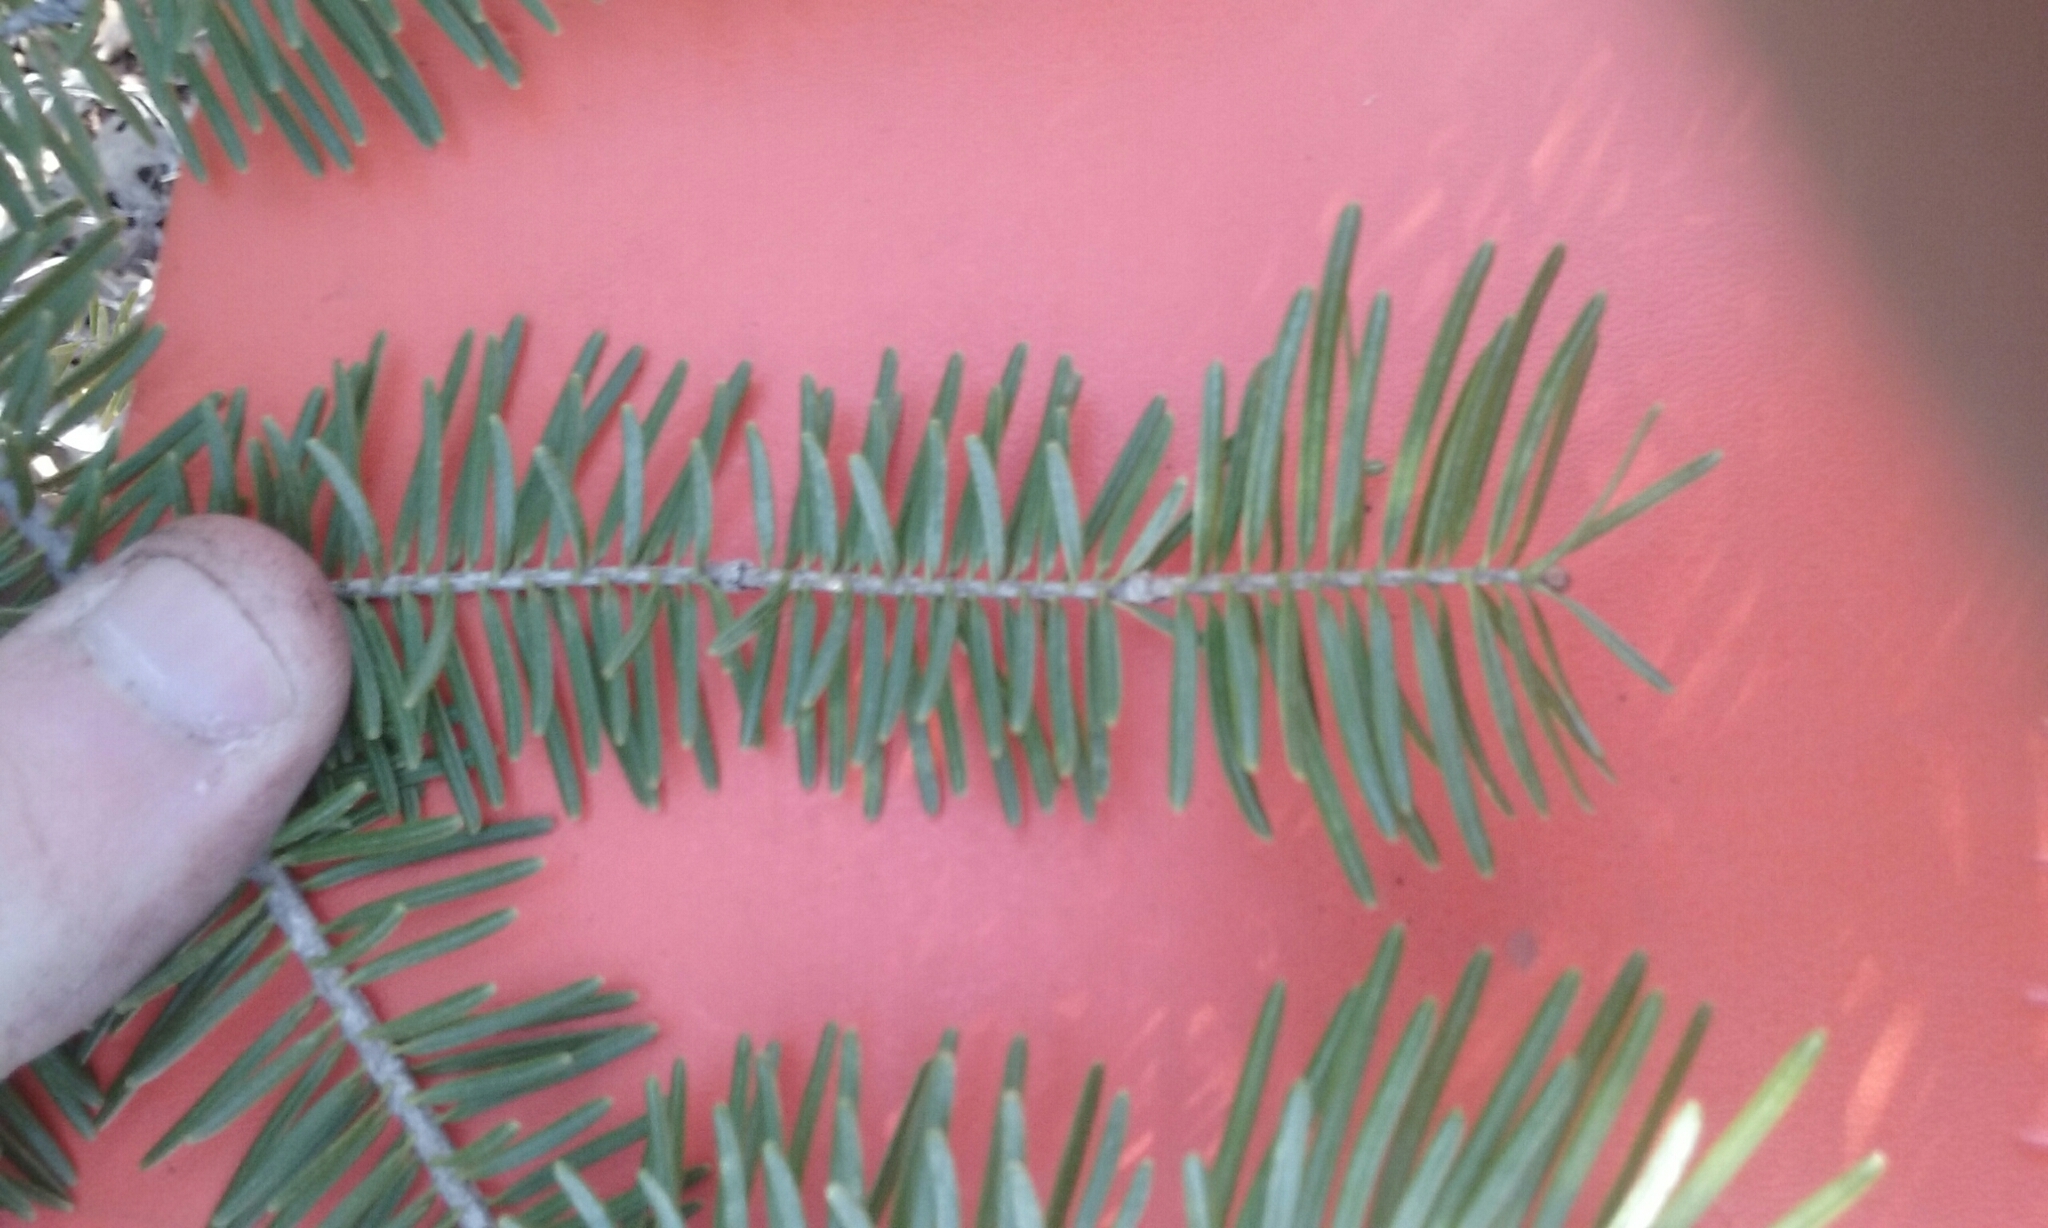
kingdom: Plantae
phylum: Tracheophyta
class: Pinopsida
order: Pinales
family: Pinaceae
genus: Abies
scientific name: Abies balsamea
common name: Balsam fir
